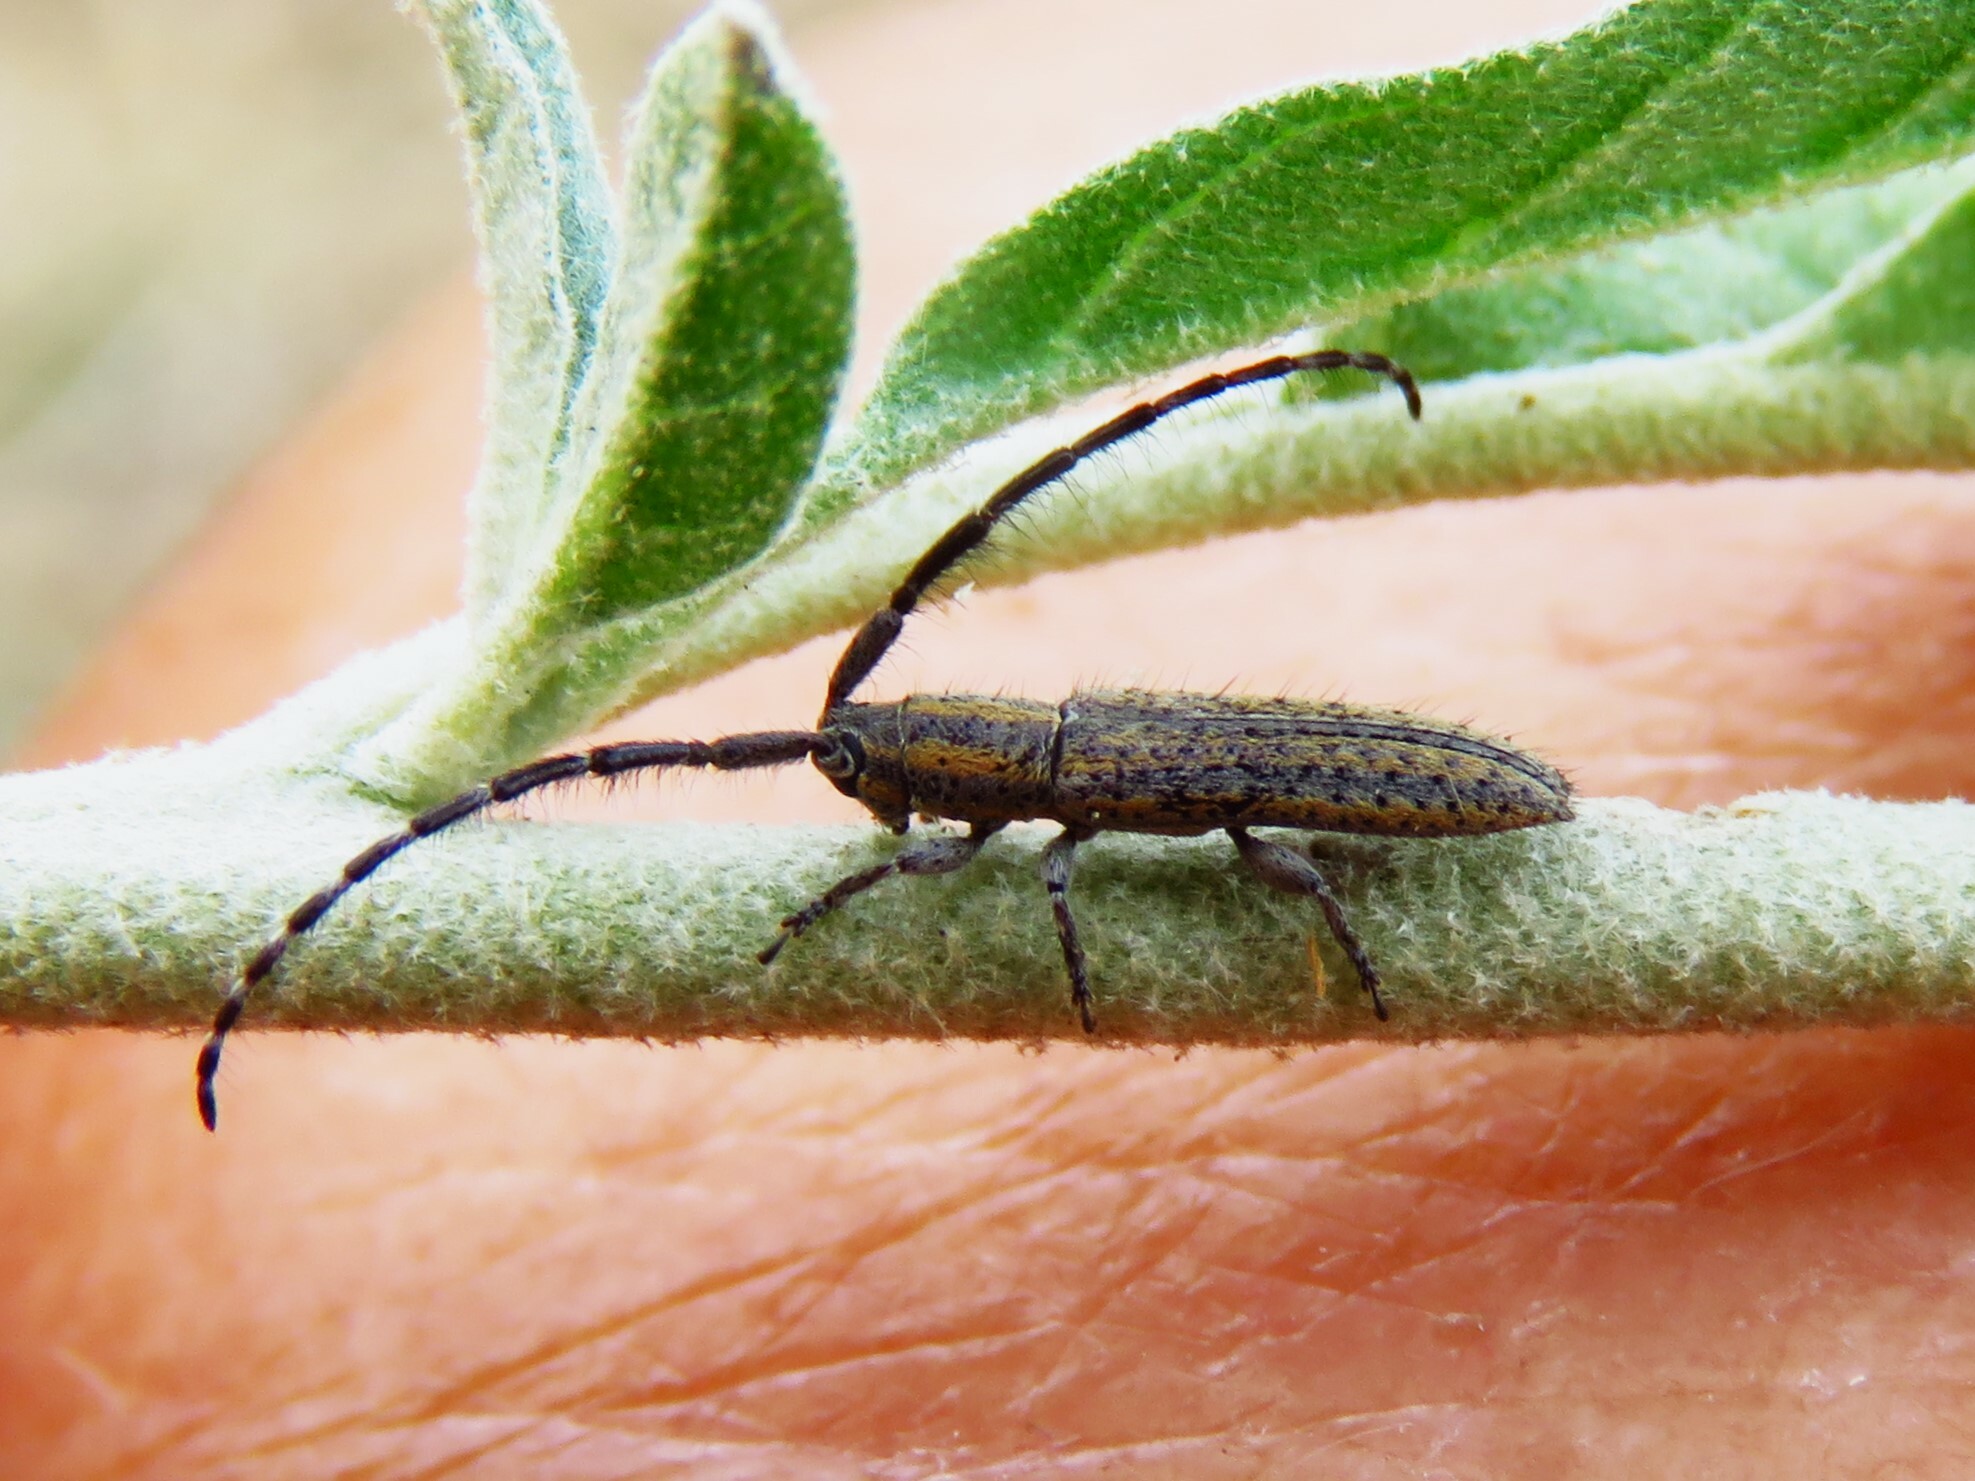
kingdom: Animalia
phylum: Arthropoda
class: Insecta
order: Coleoptera
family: Cerambycidae
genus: Dorcasta
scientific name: Dorcasta cinerea
